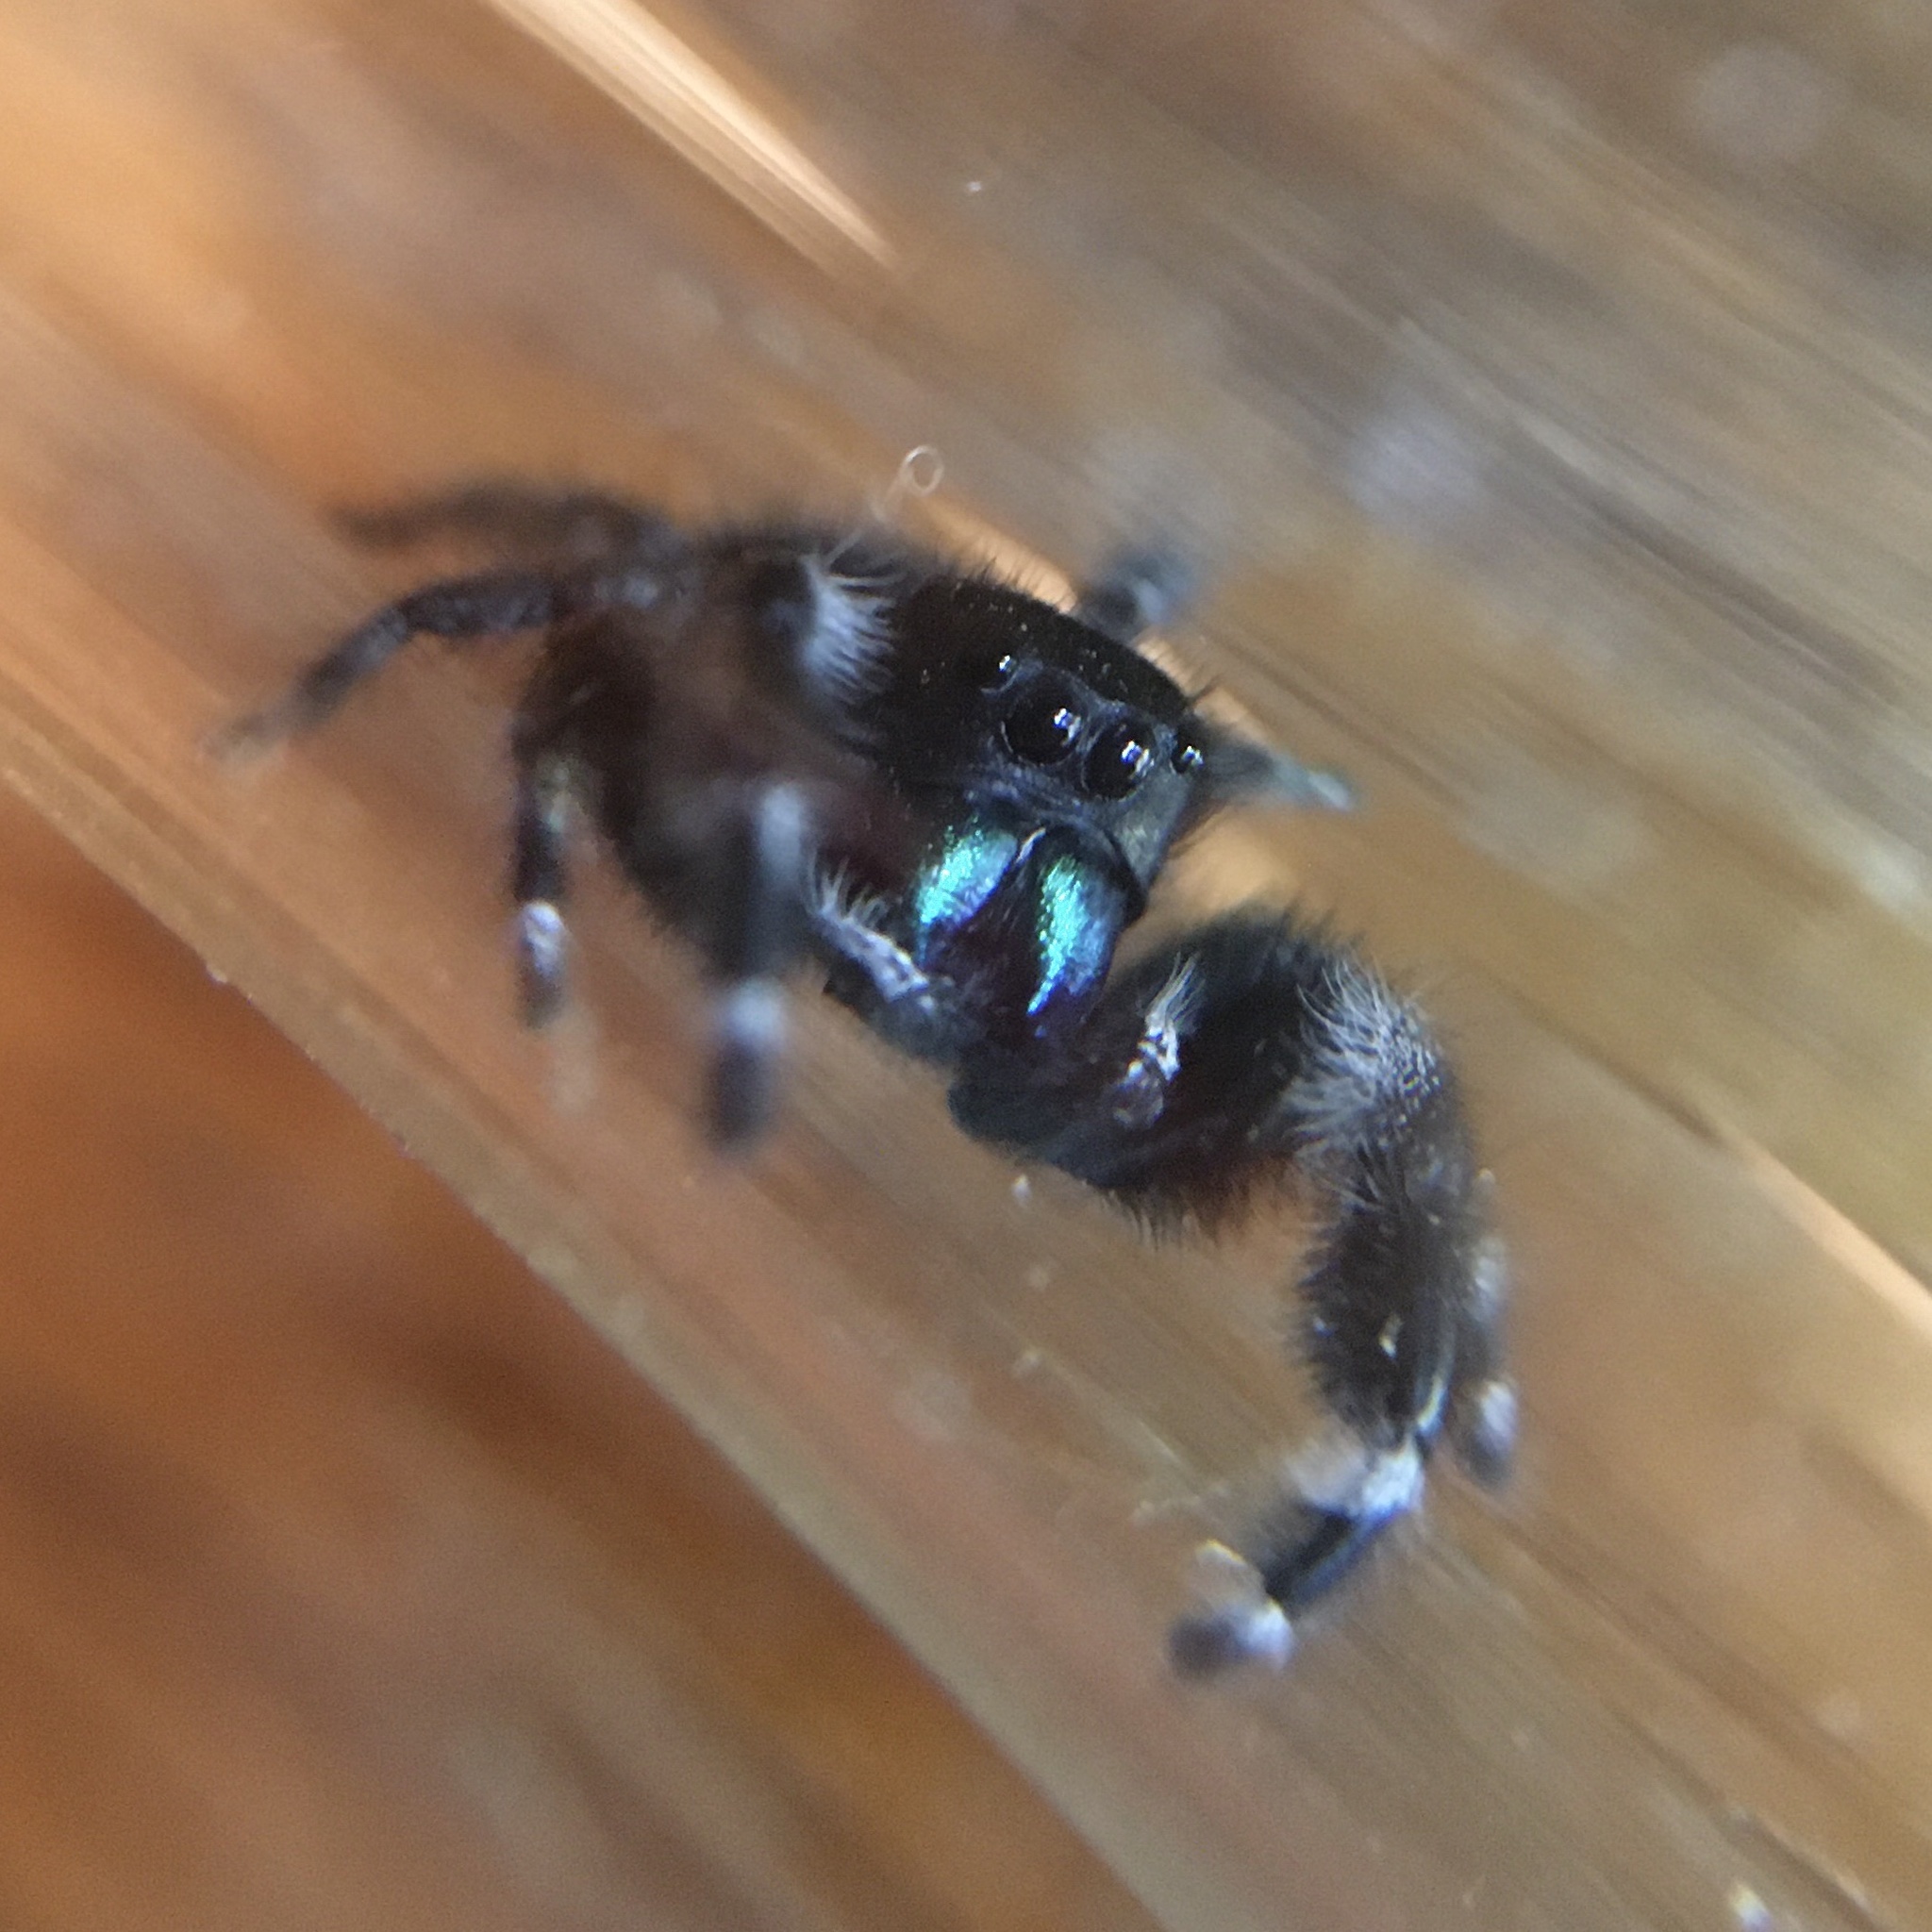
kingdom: Animalia
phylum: Arthropoda
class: Arachnida
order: Araneae
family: Salticidae
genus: Phidippus
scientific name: Phidippus audax
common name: Bold jumper
